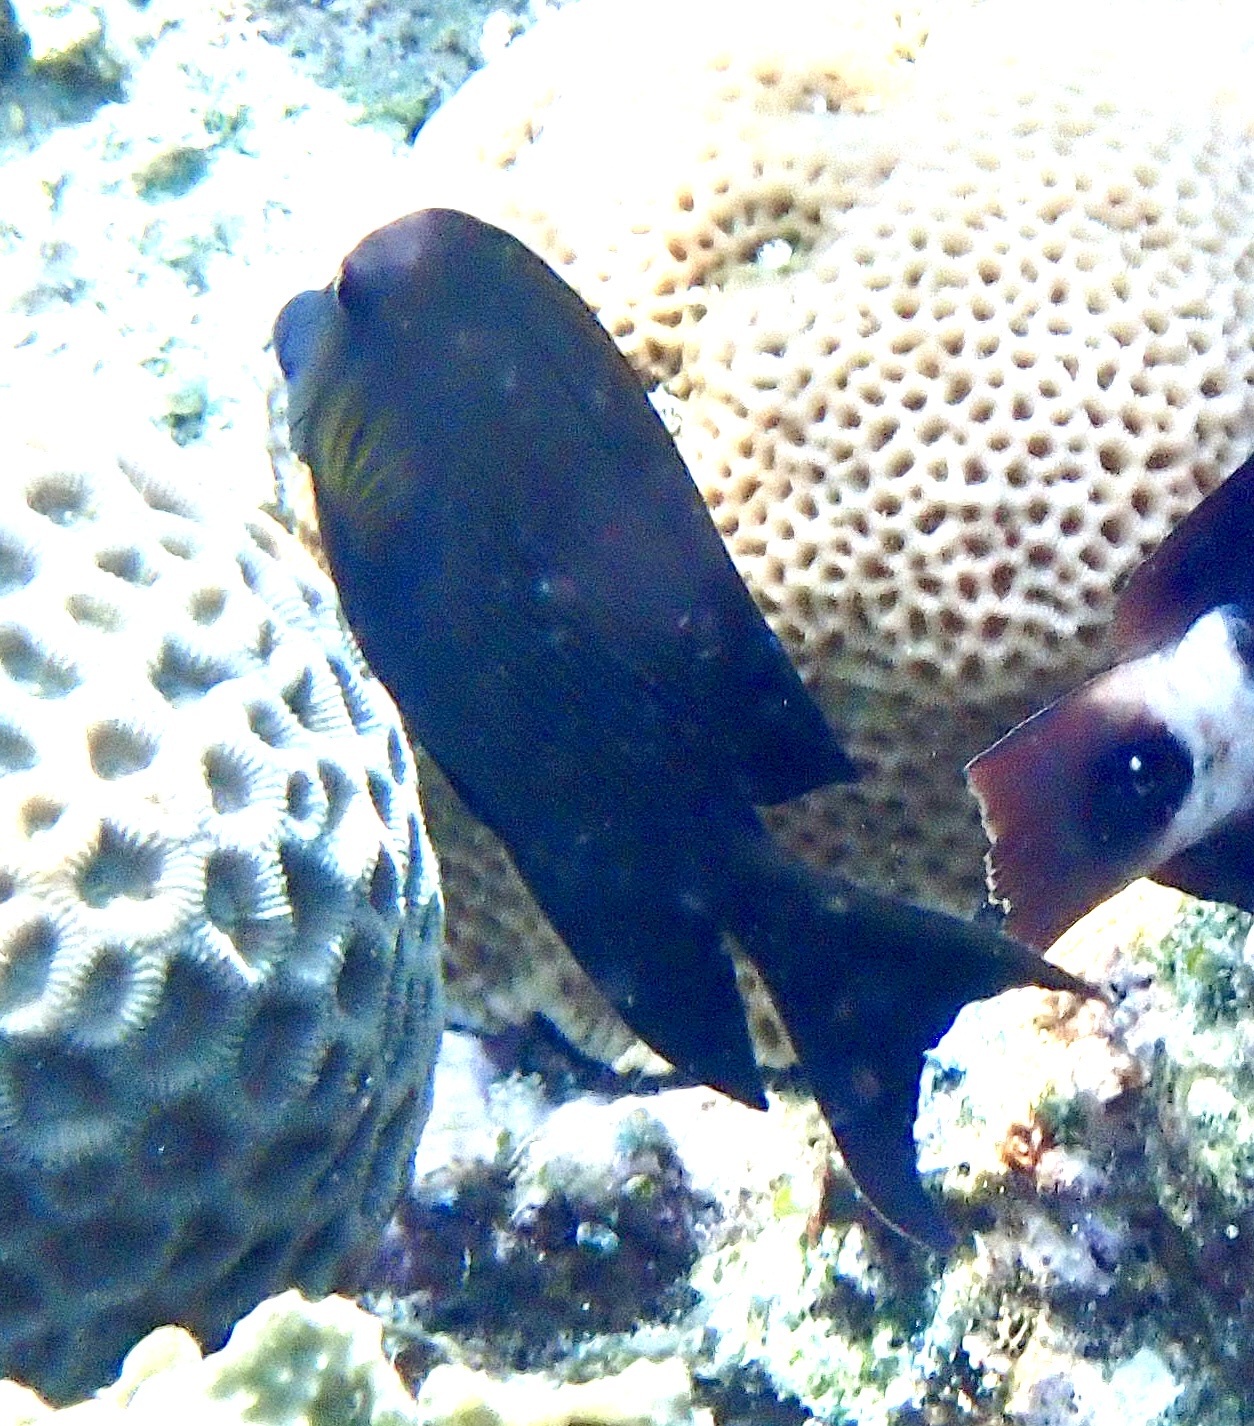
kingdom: Animalia
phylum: Chordata
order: Perciformes
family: Acanthuridae
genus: Ctenochaetus
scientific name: Ctenochaetus striatus
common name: Bristle-toothed surgeonfish
